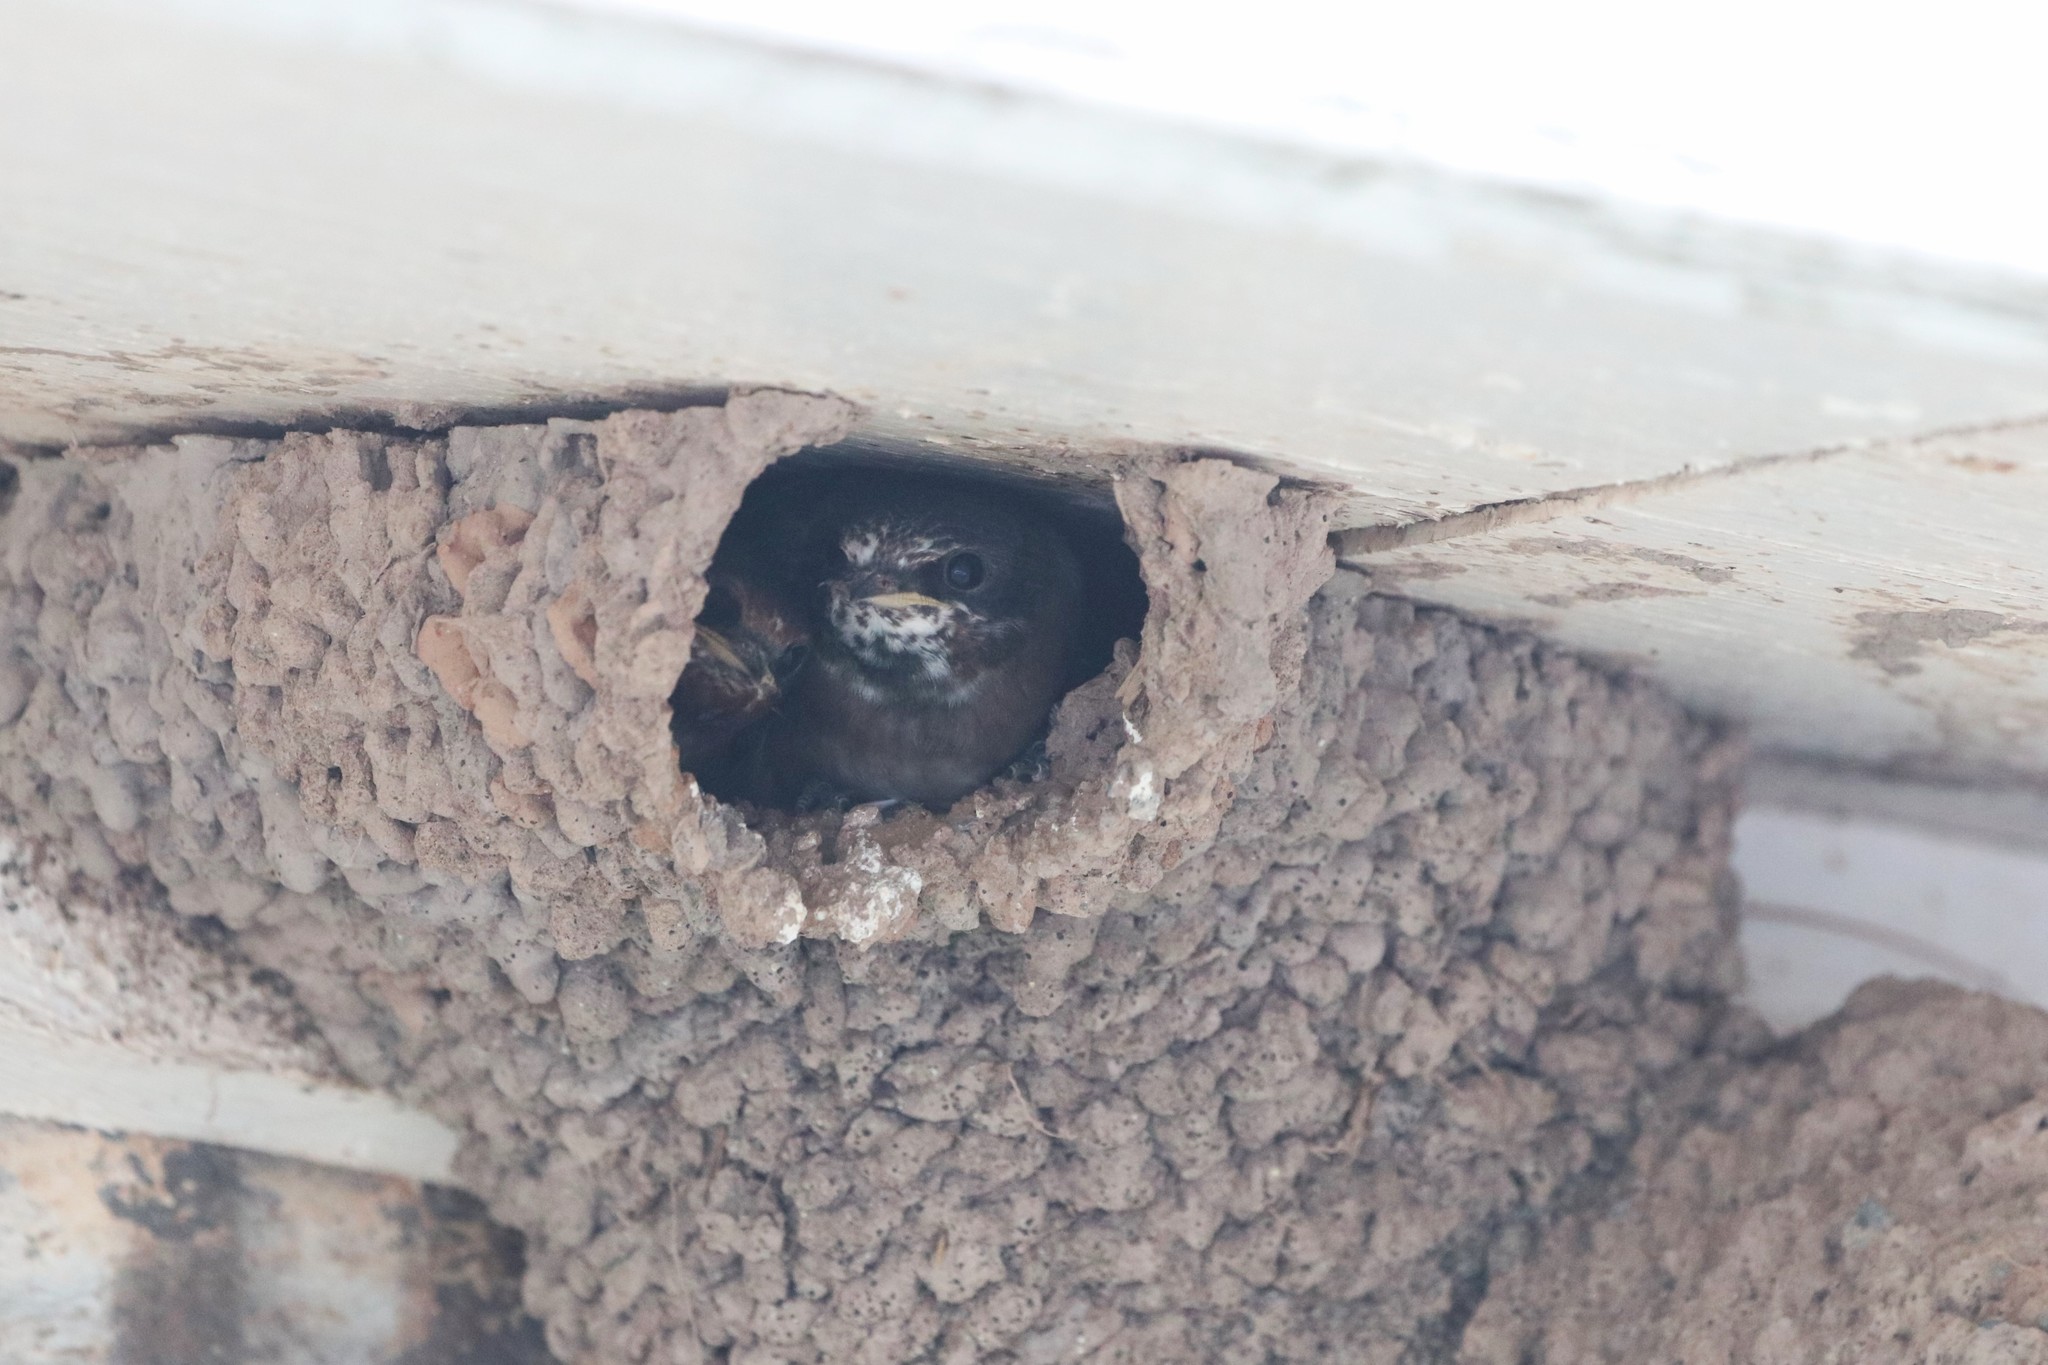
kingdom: Animalia
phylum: Chordata
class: Aves
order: Passeriformes
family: Hirundinidae
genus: Petrochelidon
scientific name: Petrochelidon pyrrhonota
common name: American cliff swallow
